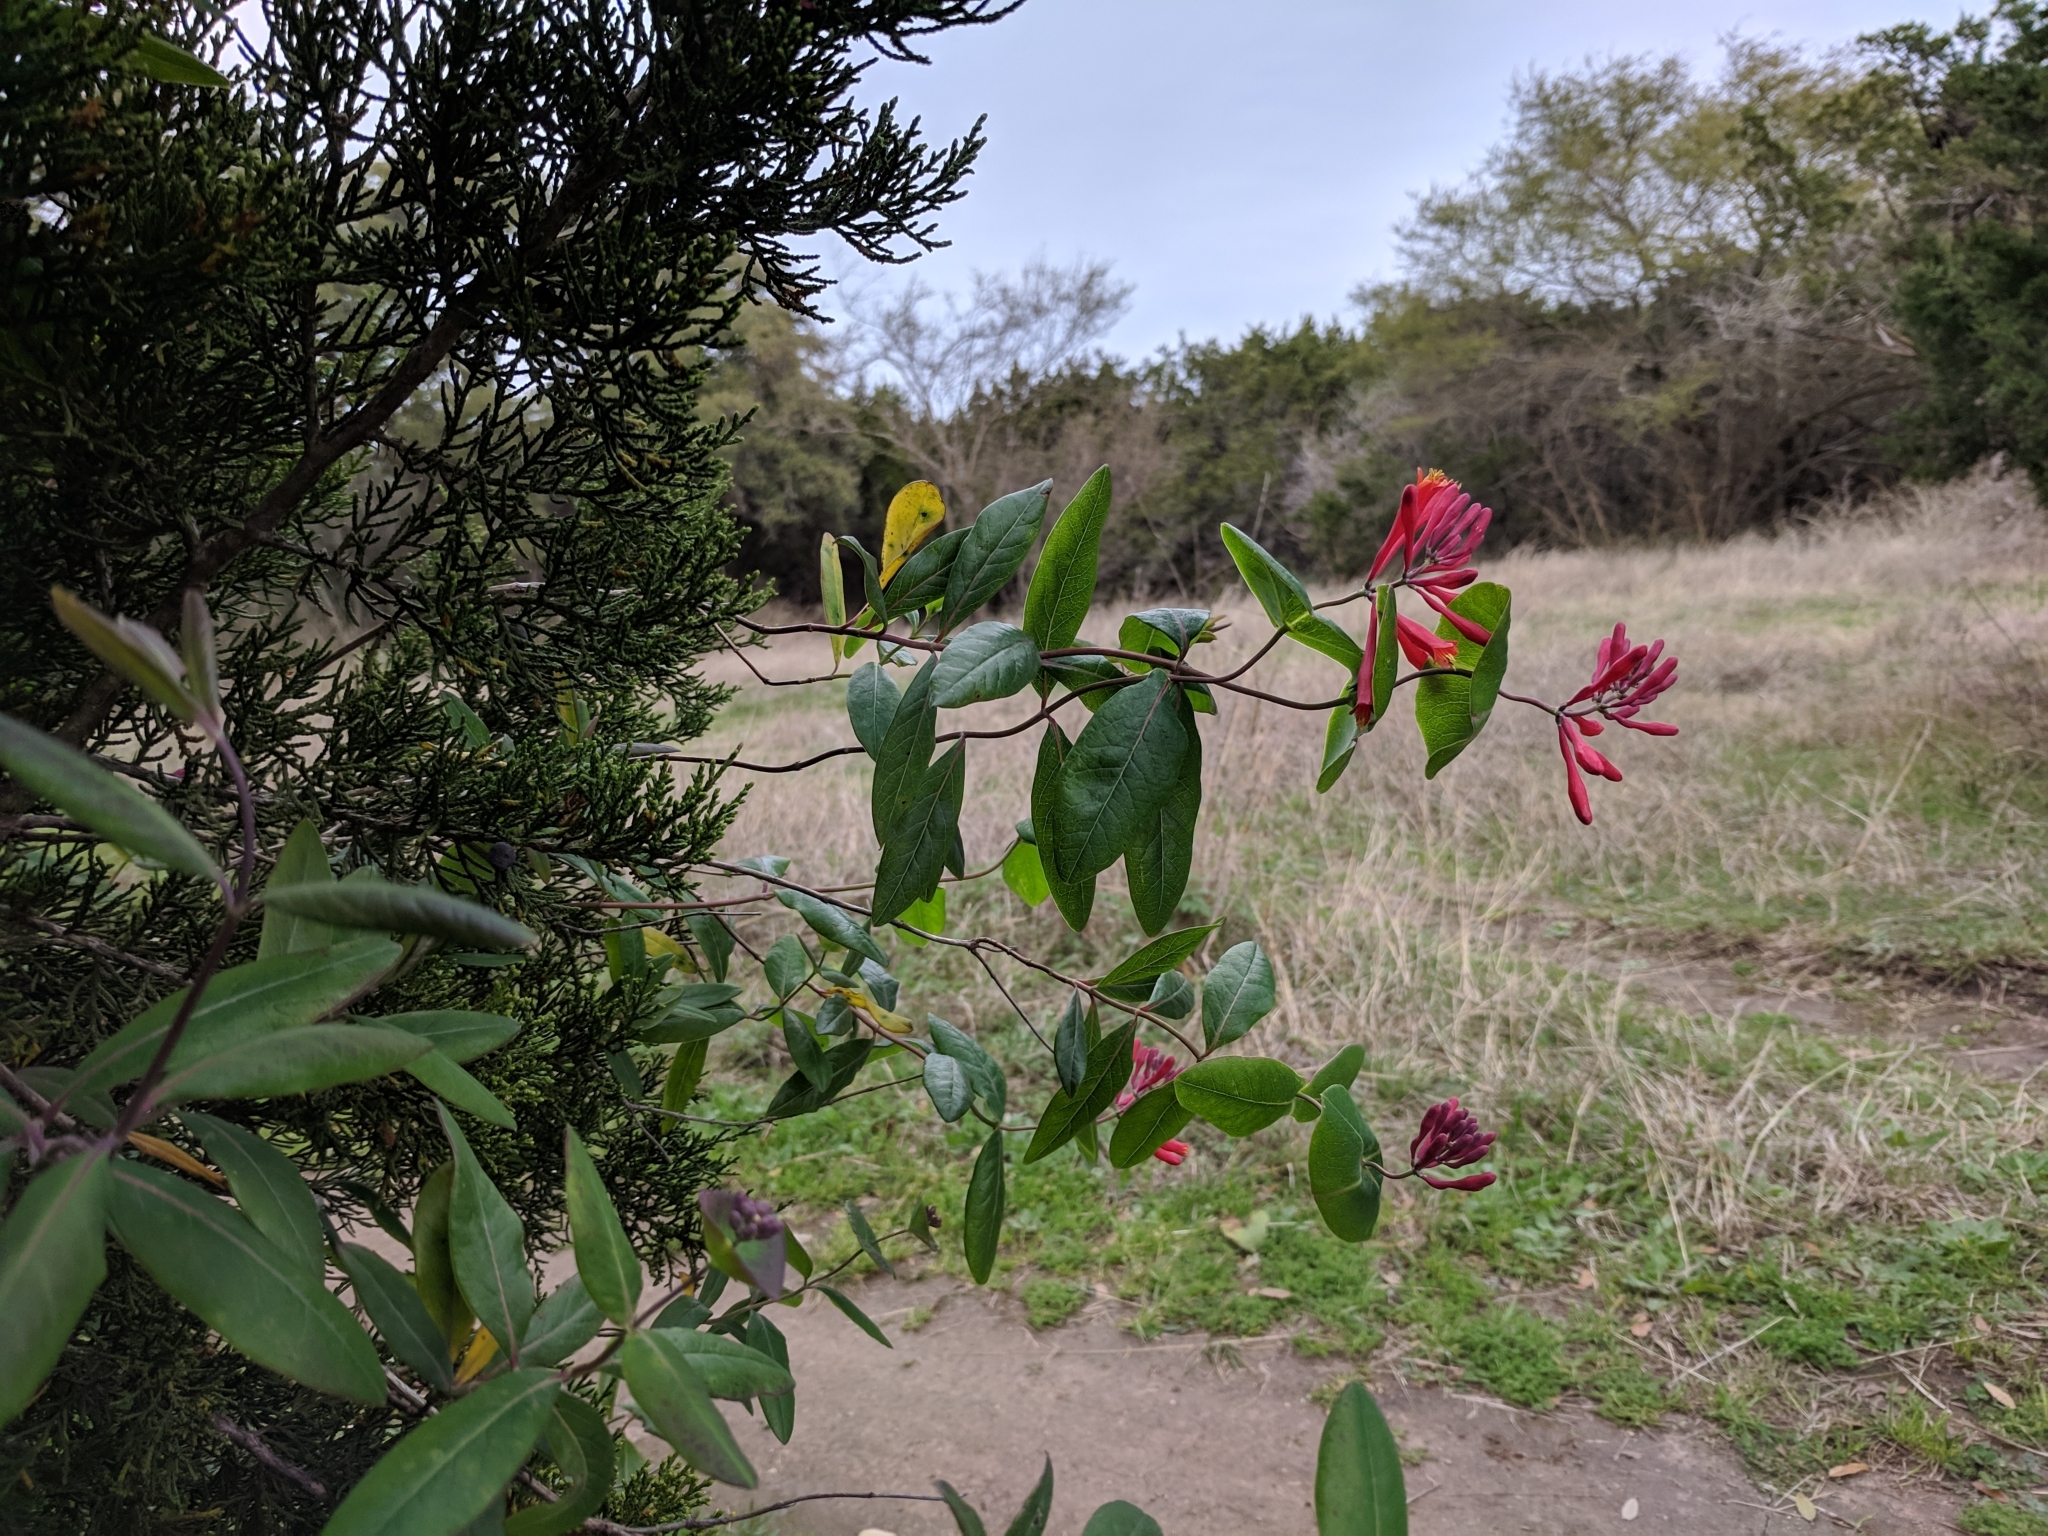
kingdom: Plantae
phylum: Tracheophyta
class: Magnoliopsida
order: Dipsacales
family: Caprifoliaceae
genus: Lonicera
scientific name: Lonicera sempervirens
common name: Coral honeysuckle
